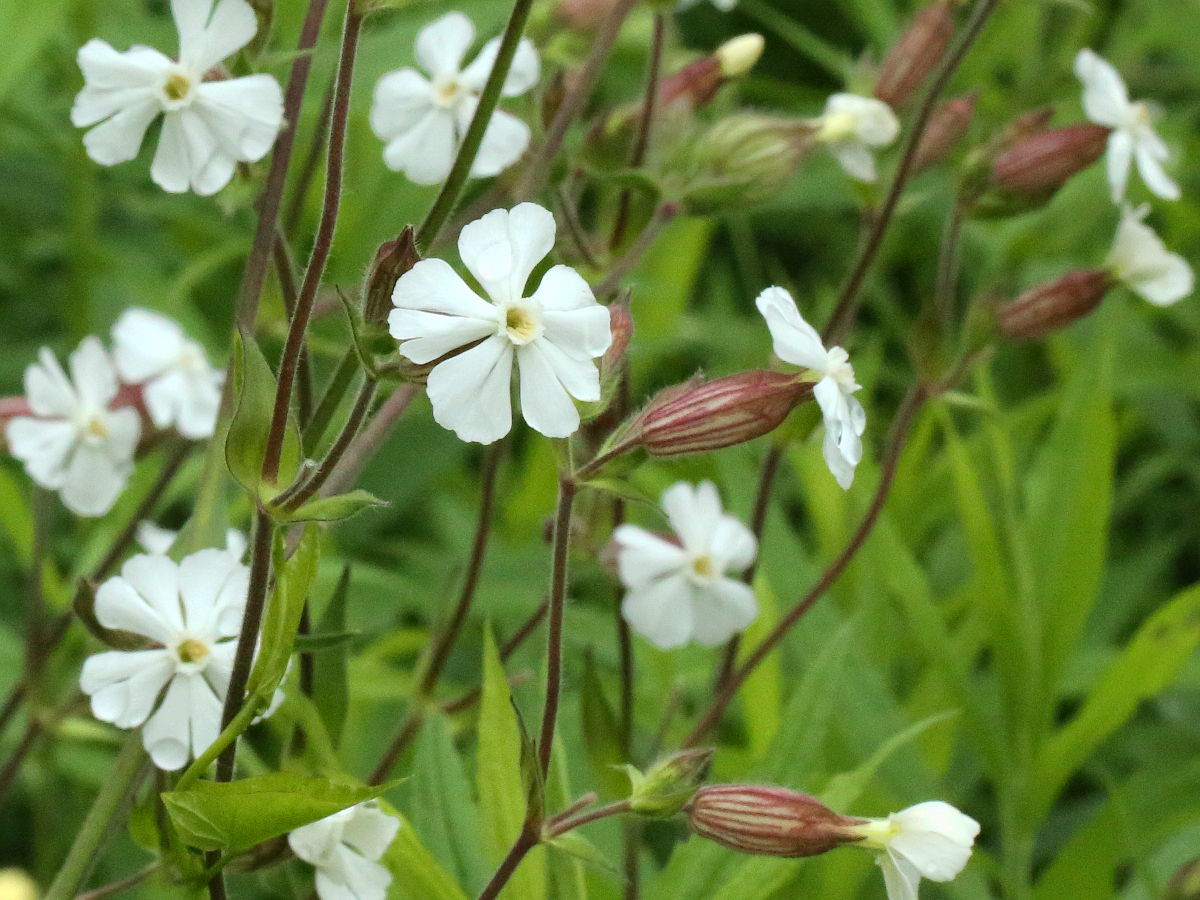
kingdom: Plantae
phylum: Tracheophyta
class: Magnoliopsida
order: Caryophyllales
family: Caryophyllaceae
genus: Silene
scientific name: Silene latifolia
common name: White campion
